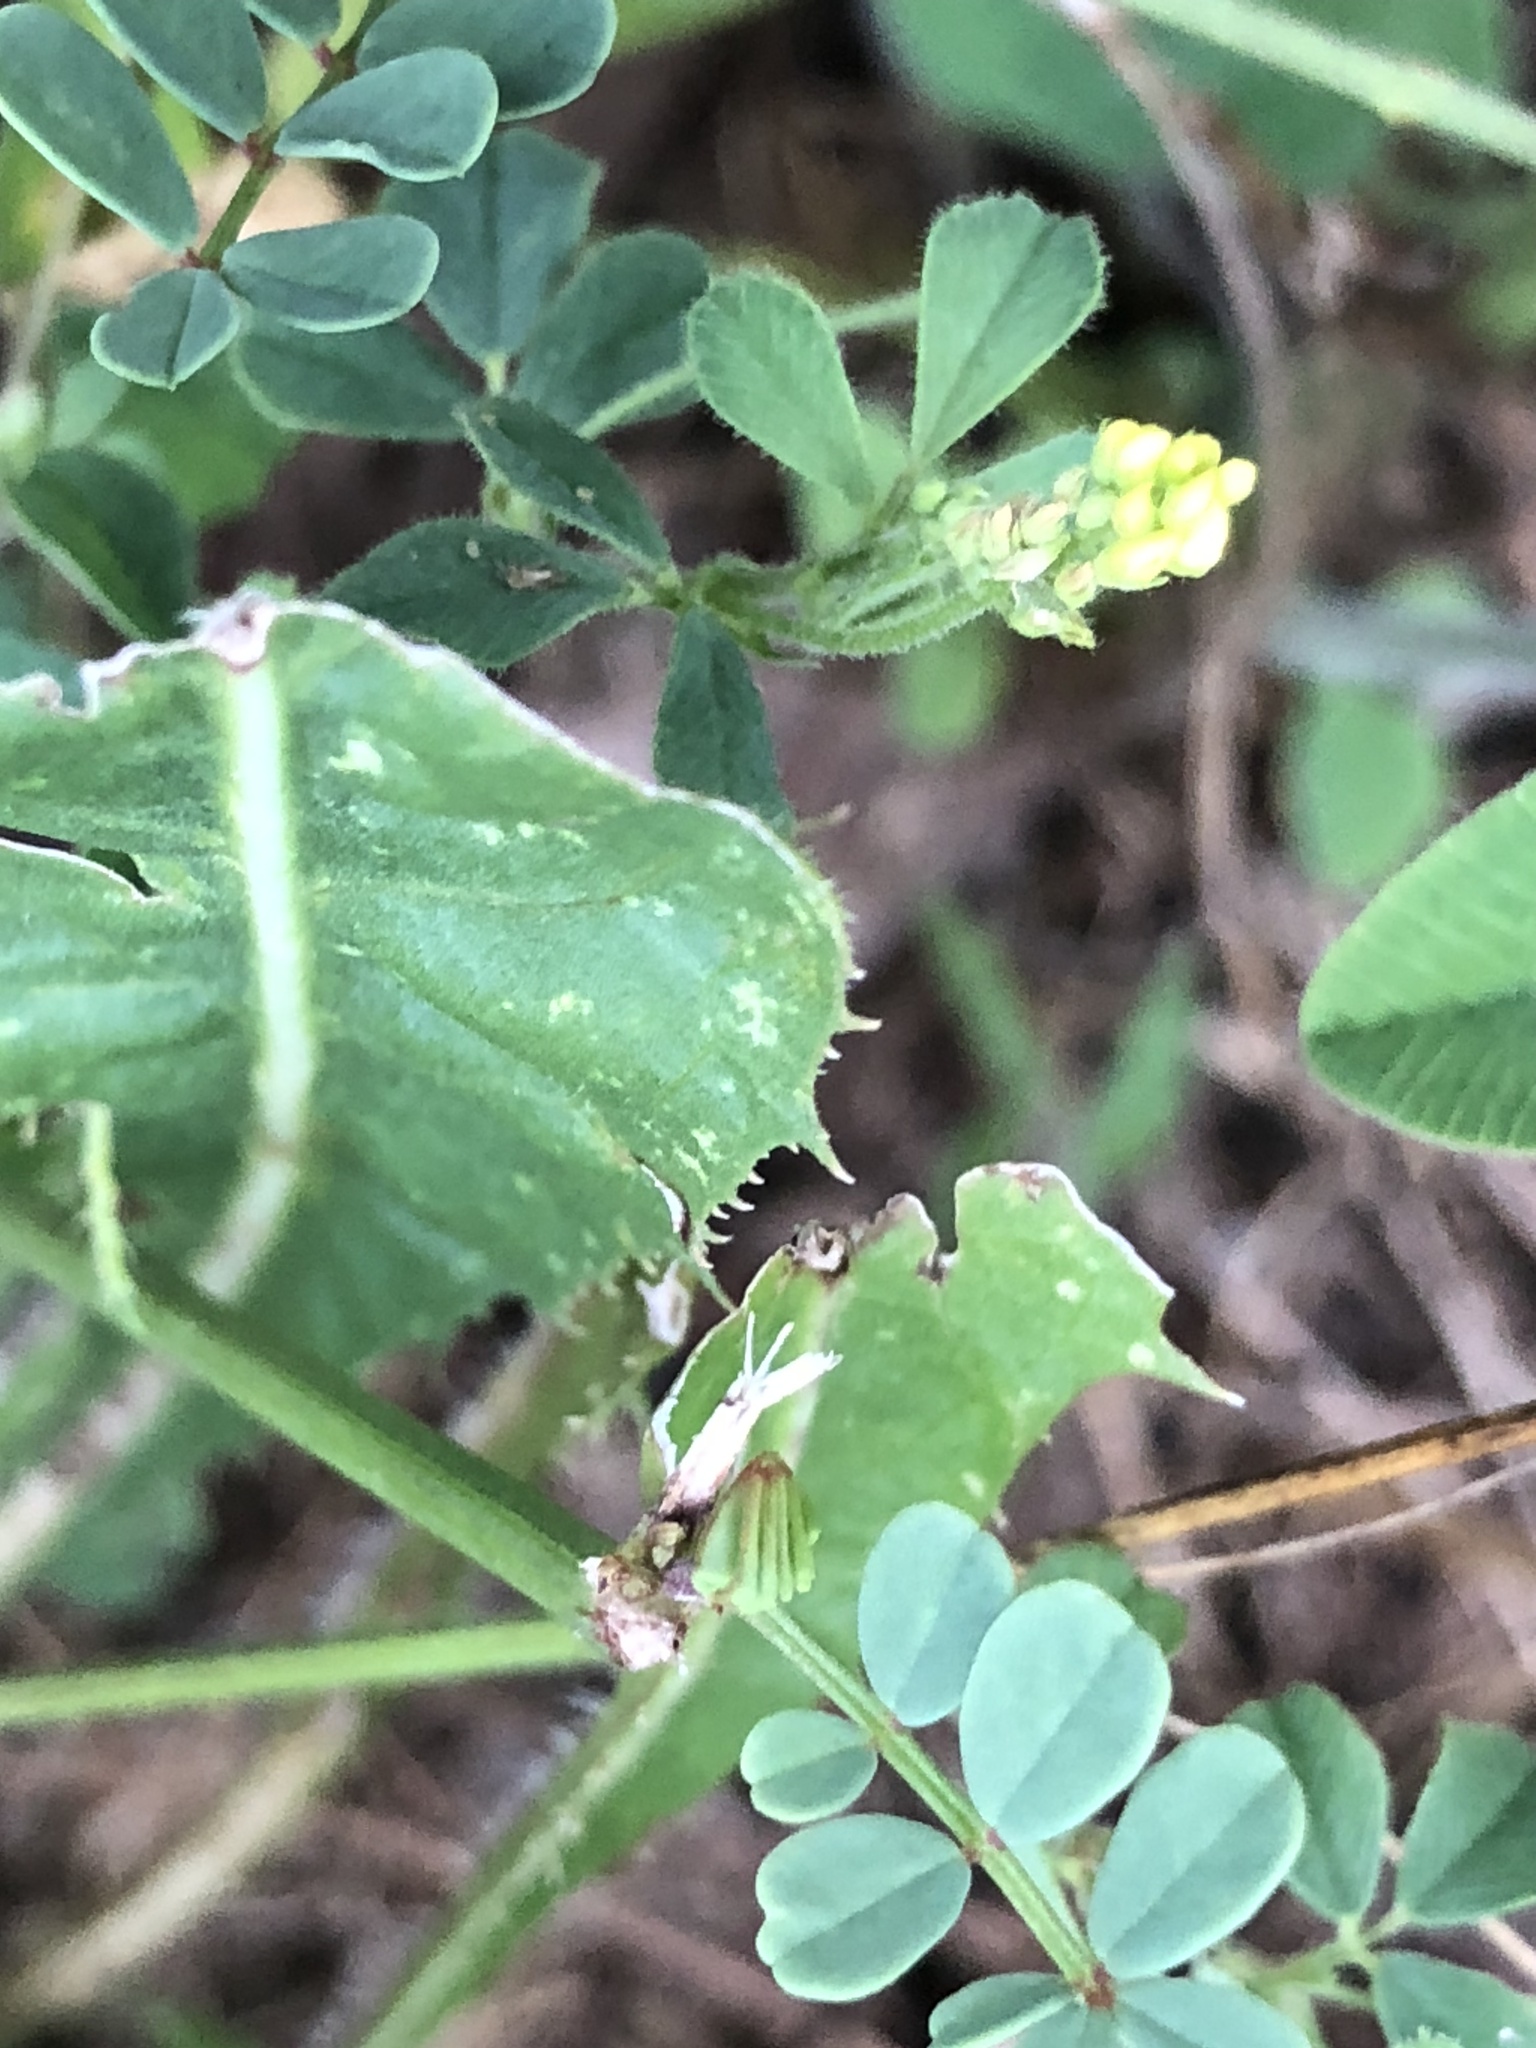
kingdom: Plantae
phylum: Tracheophyta
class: Magnoliopsida
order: Fabales
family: Fabaceae
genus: Medicago
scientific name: Medicago lupulina
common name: Black medick
